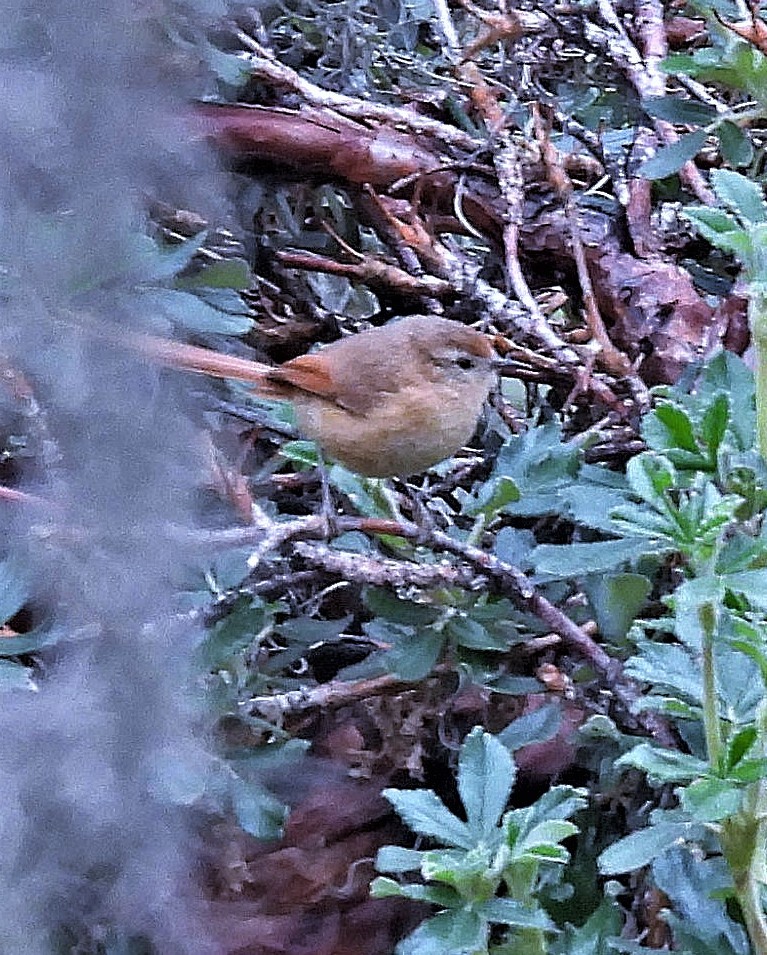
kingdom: Animalia
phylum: Chordata
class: Aves
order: Passeriformes
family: Furnariidae
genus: Leptasthenura
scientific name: Leptasthenura yanacensis
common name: Tawny tit-spinetail
